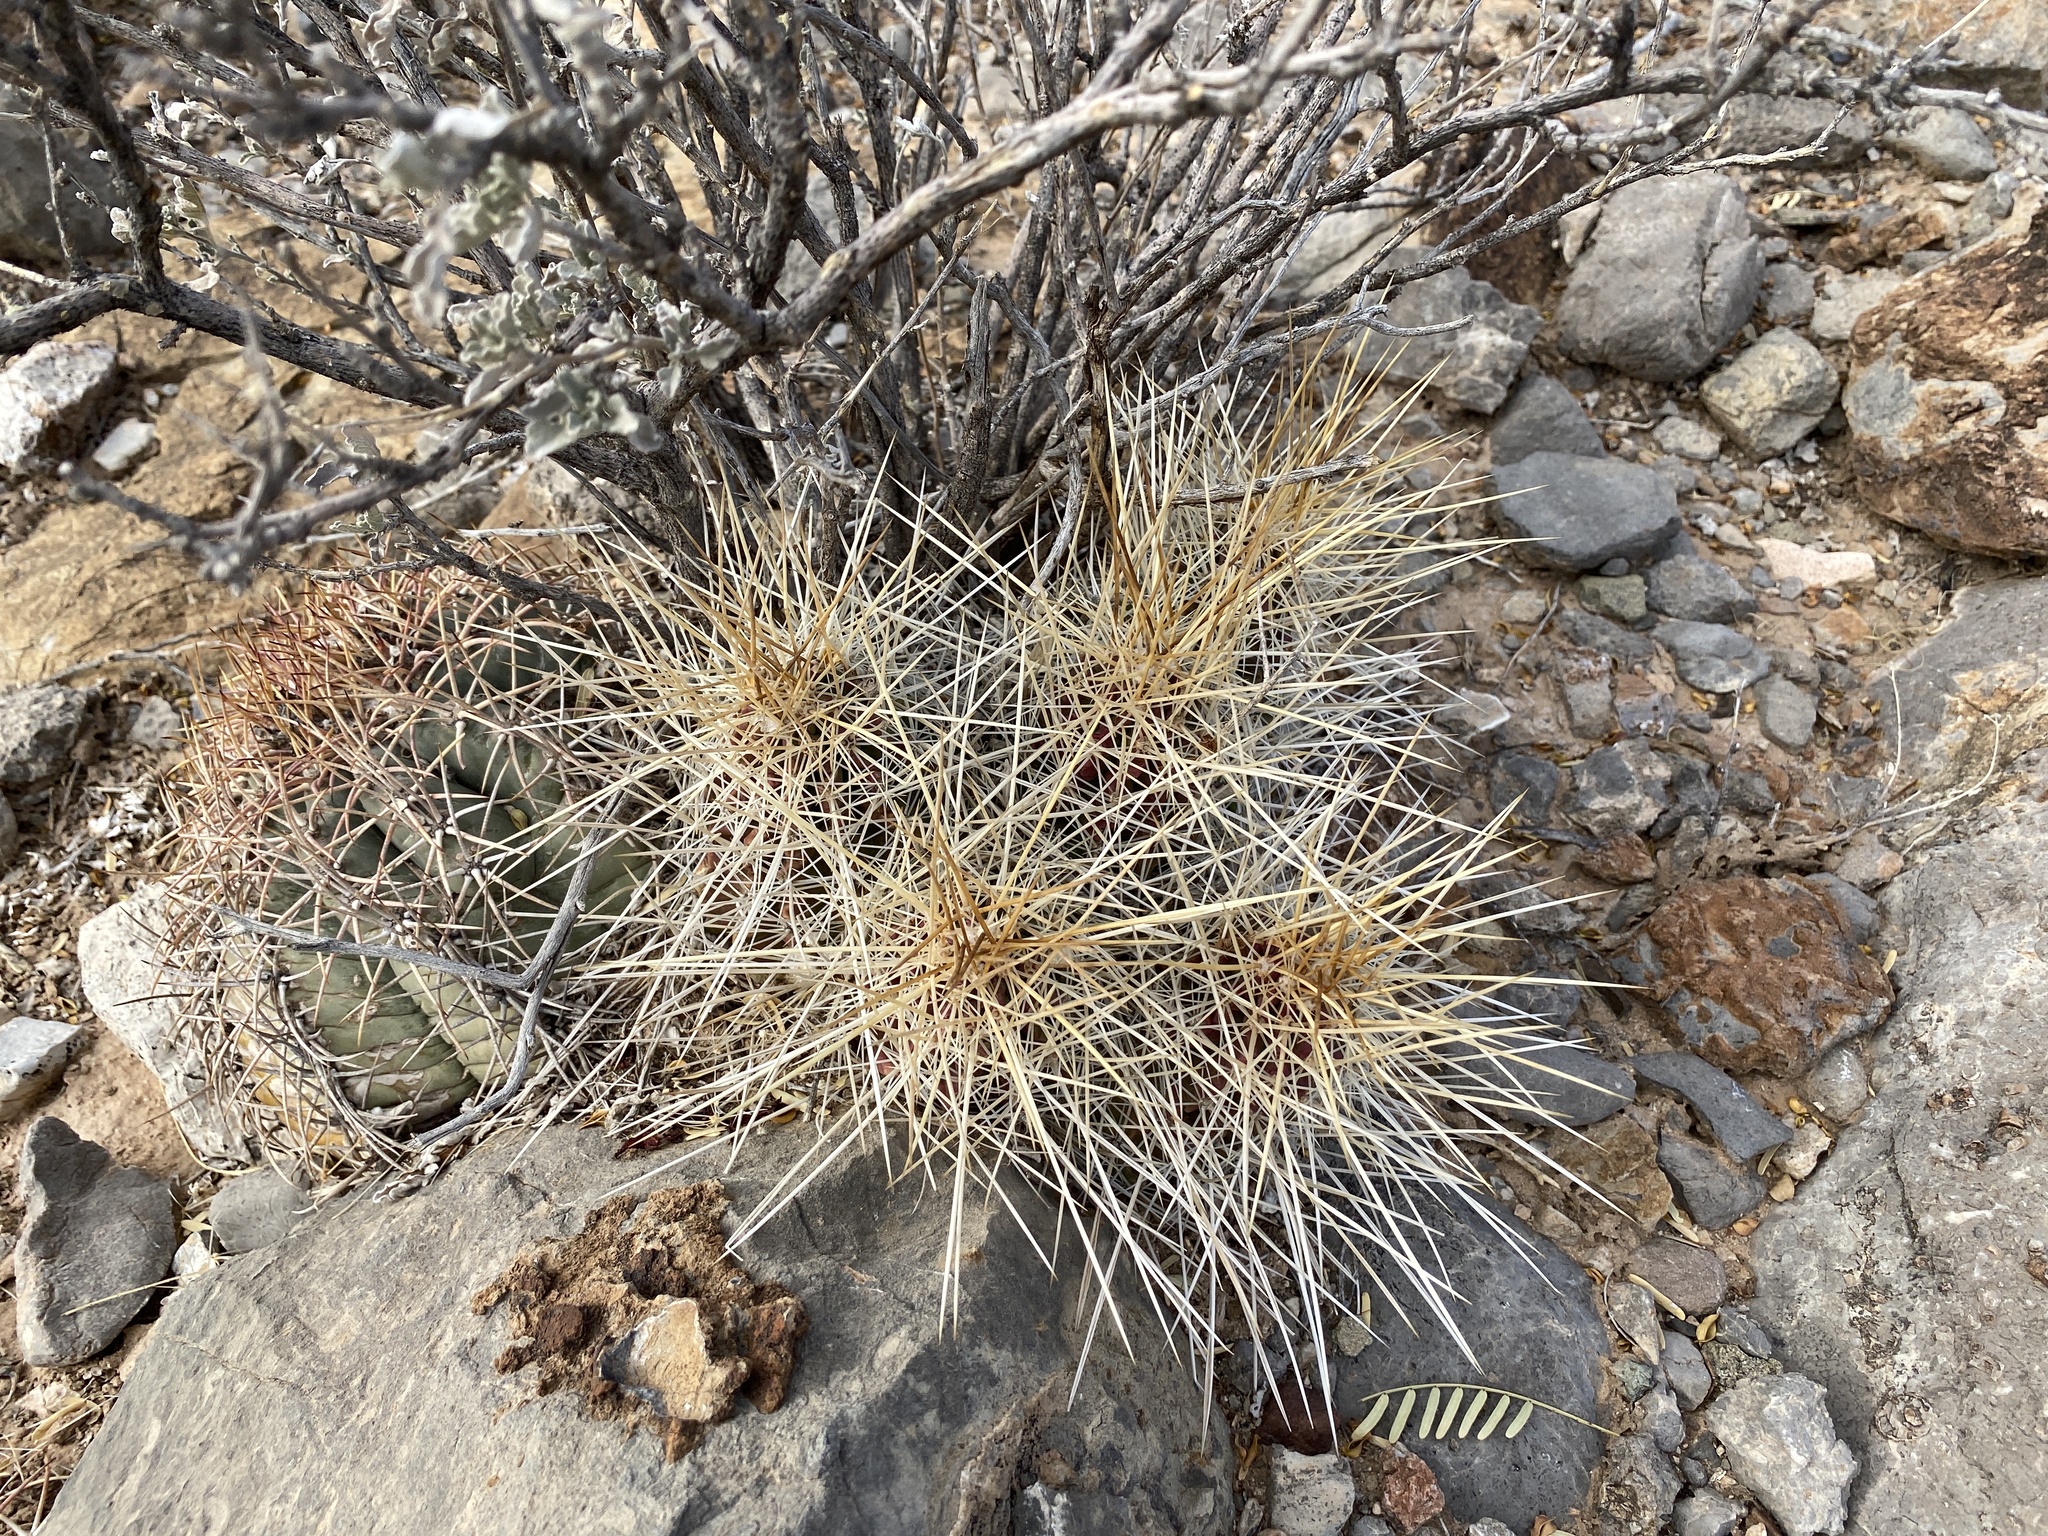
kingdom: Plantae
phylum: Tracheophyta
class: Magnoliopsida
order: Caryophyllales
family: Cactaceae
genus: Echinocereus
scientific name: Echinocereus stramineus
